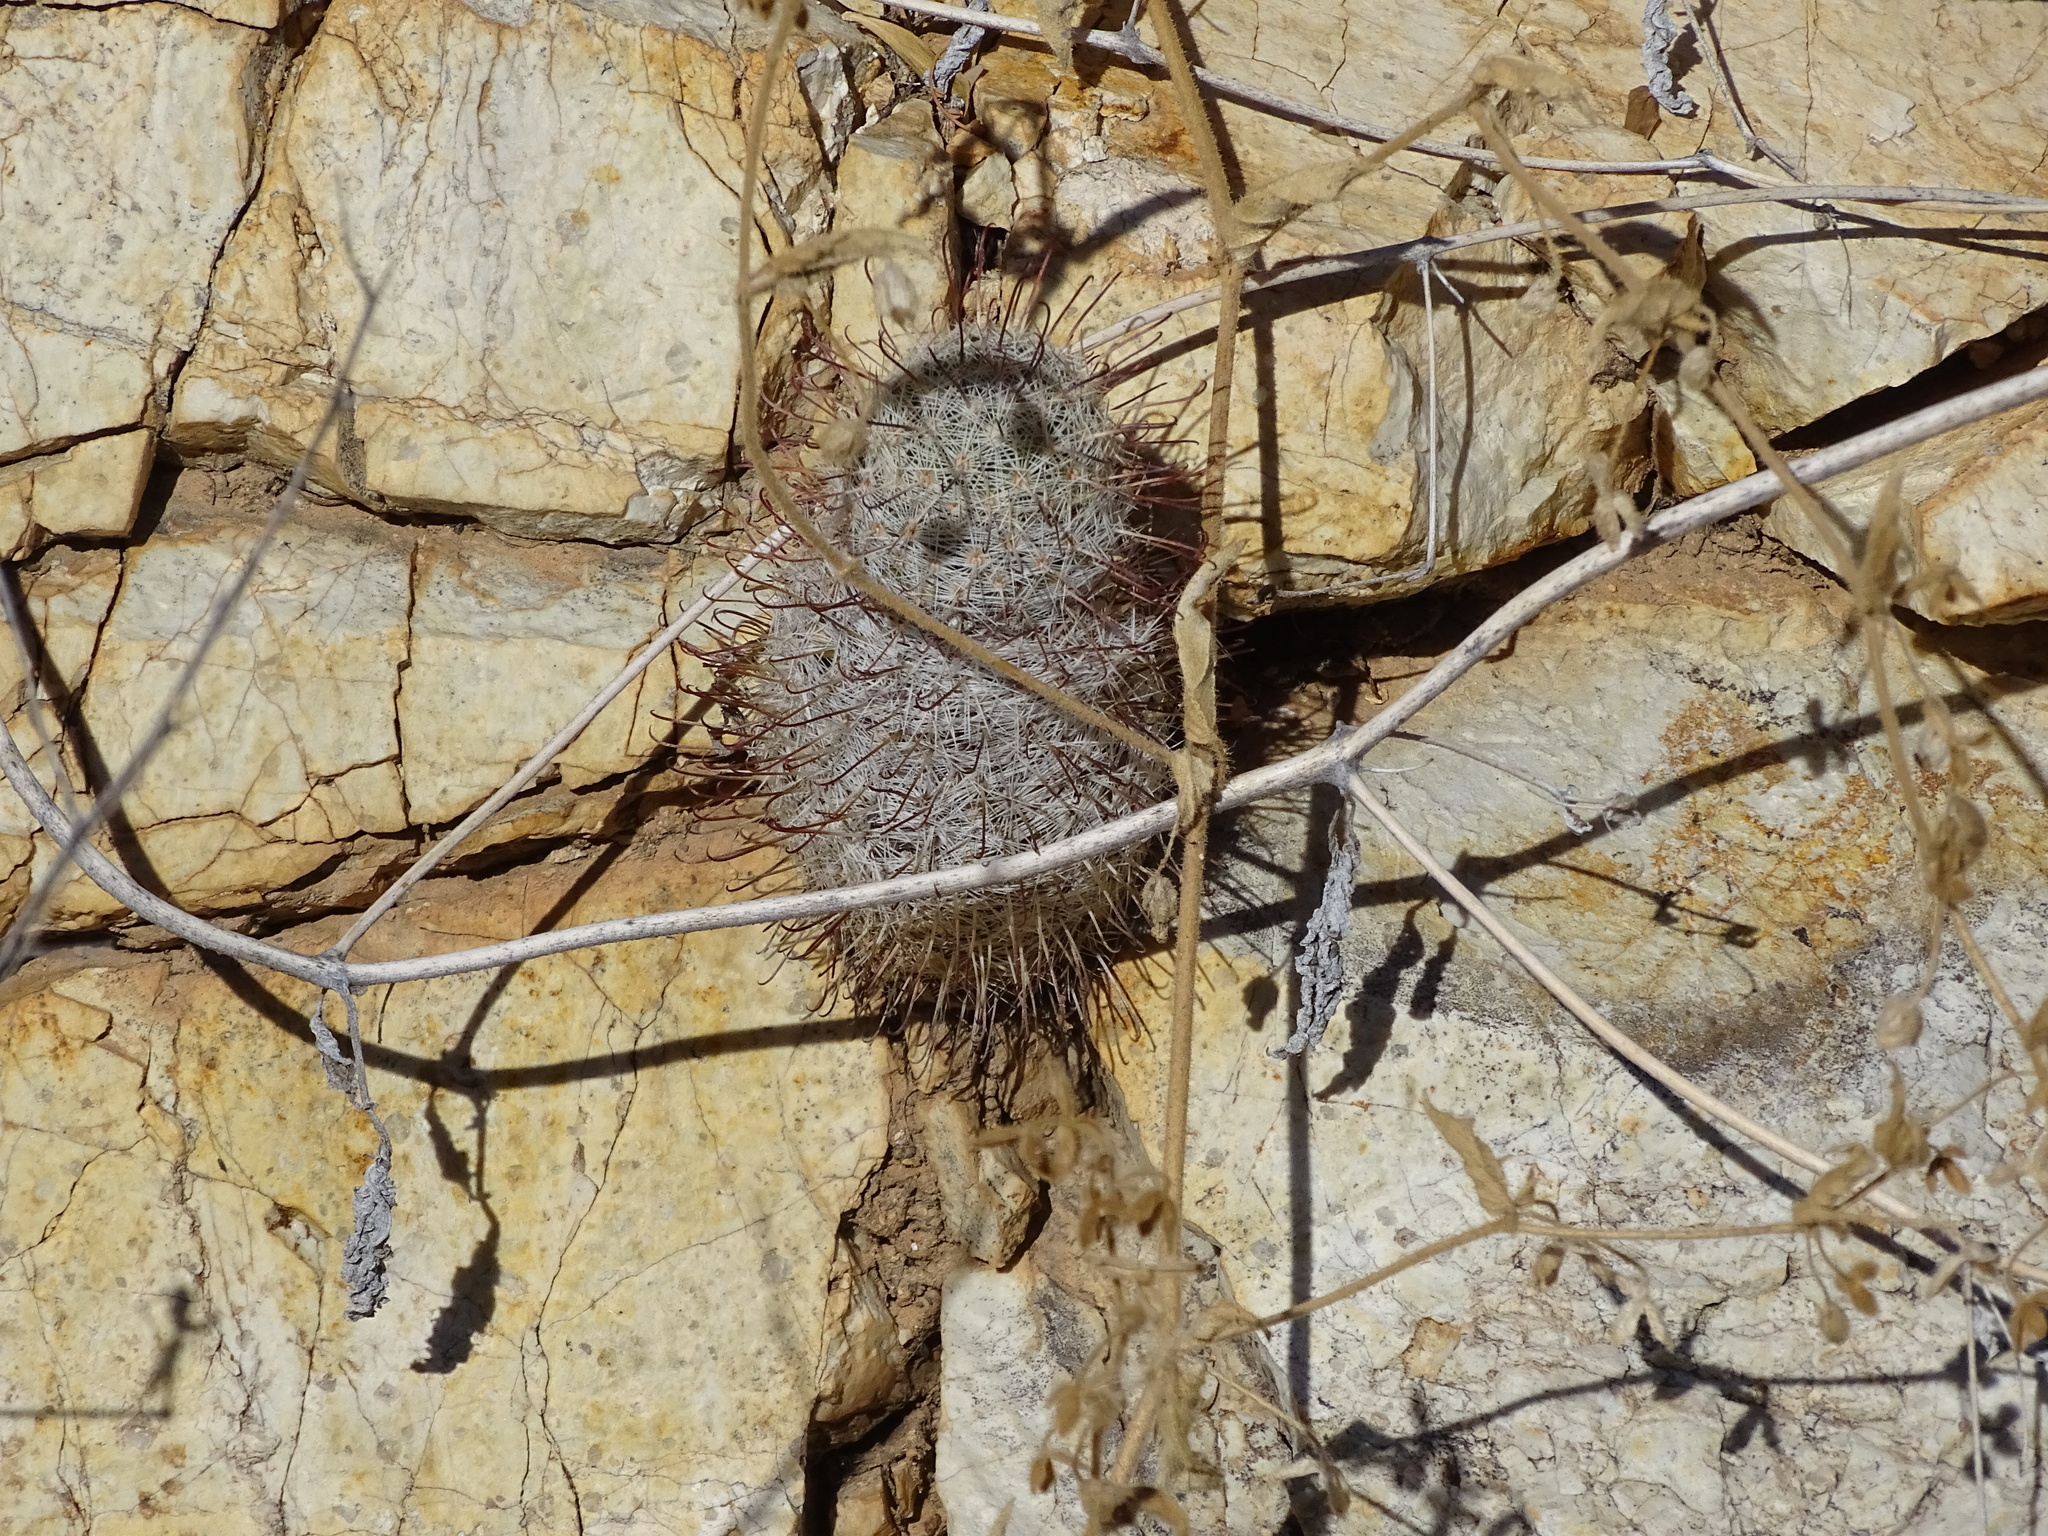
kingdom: Plantae
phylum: Tracheophyta
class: Magnoliopsida
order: Caryophyllales
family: Cactaceae
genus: Cochemiea
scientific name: Cochemiea grahamii
